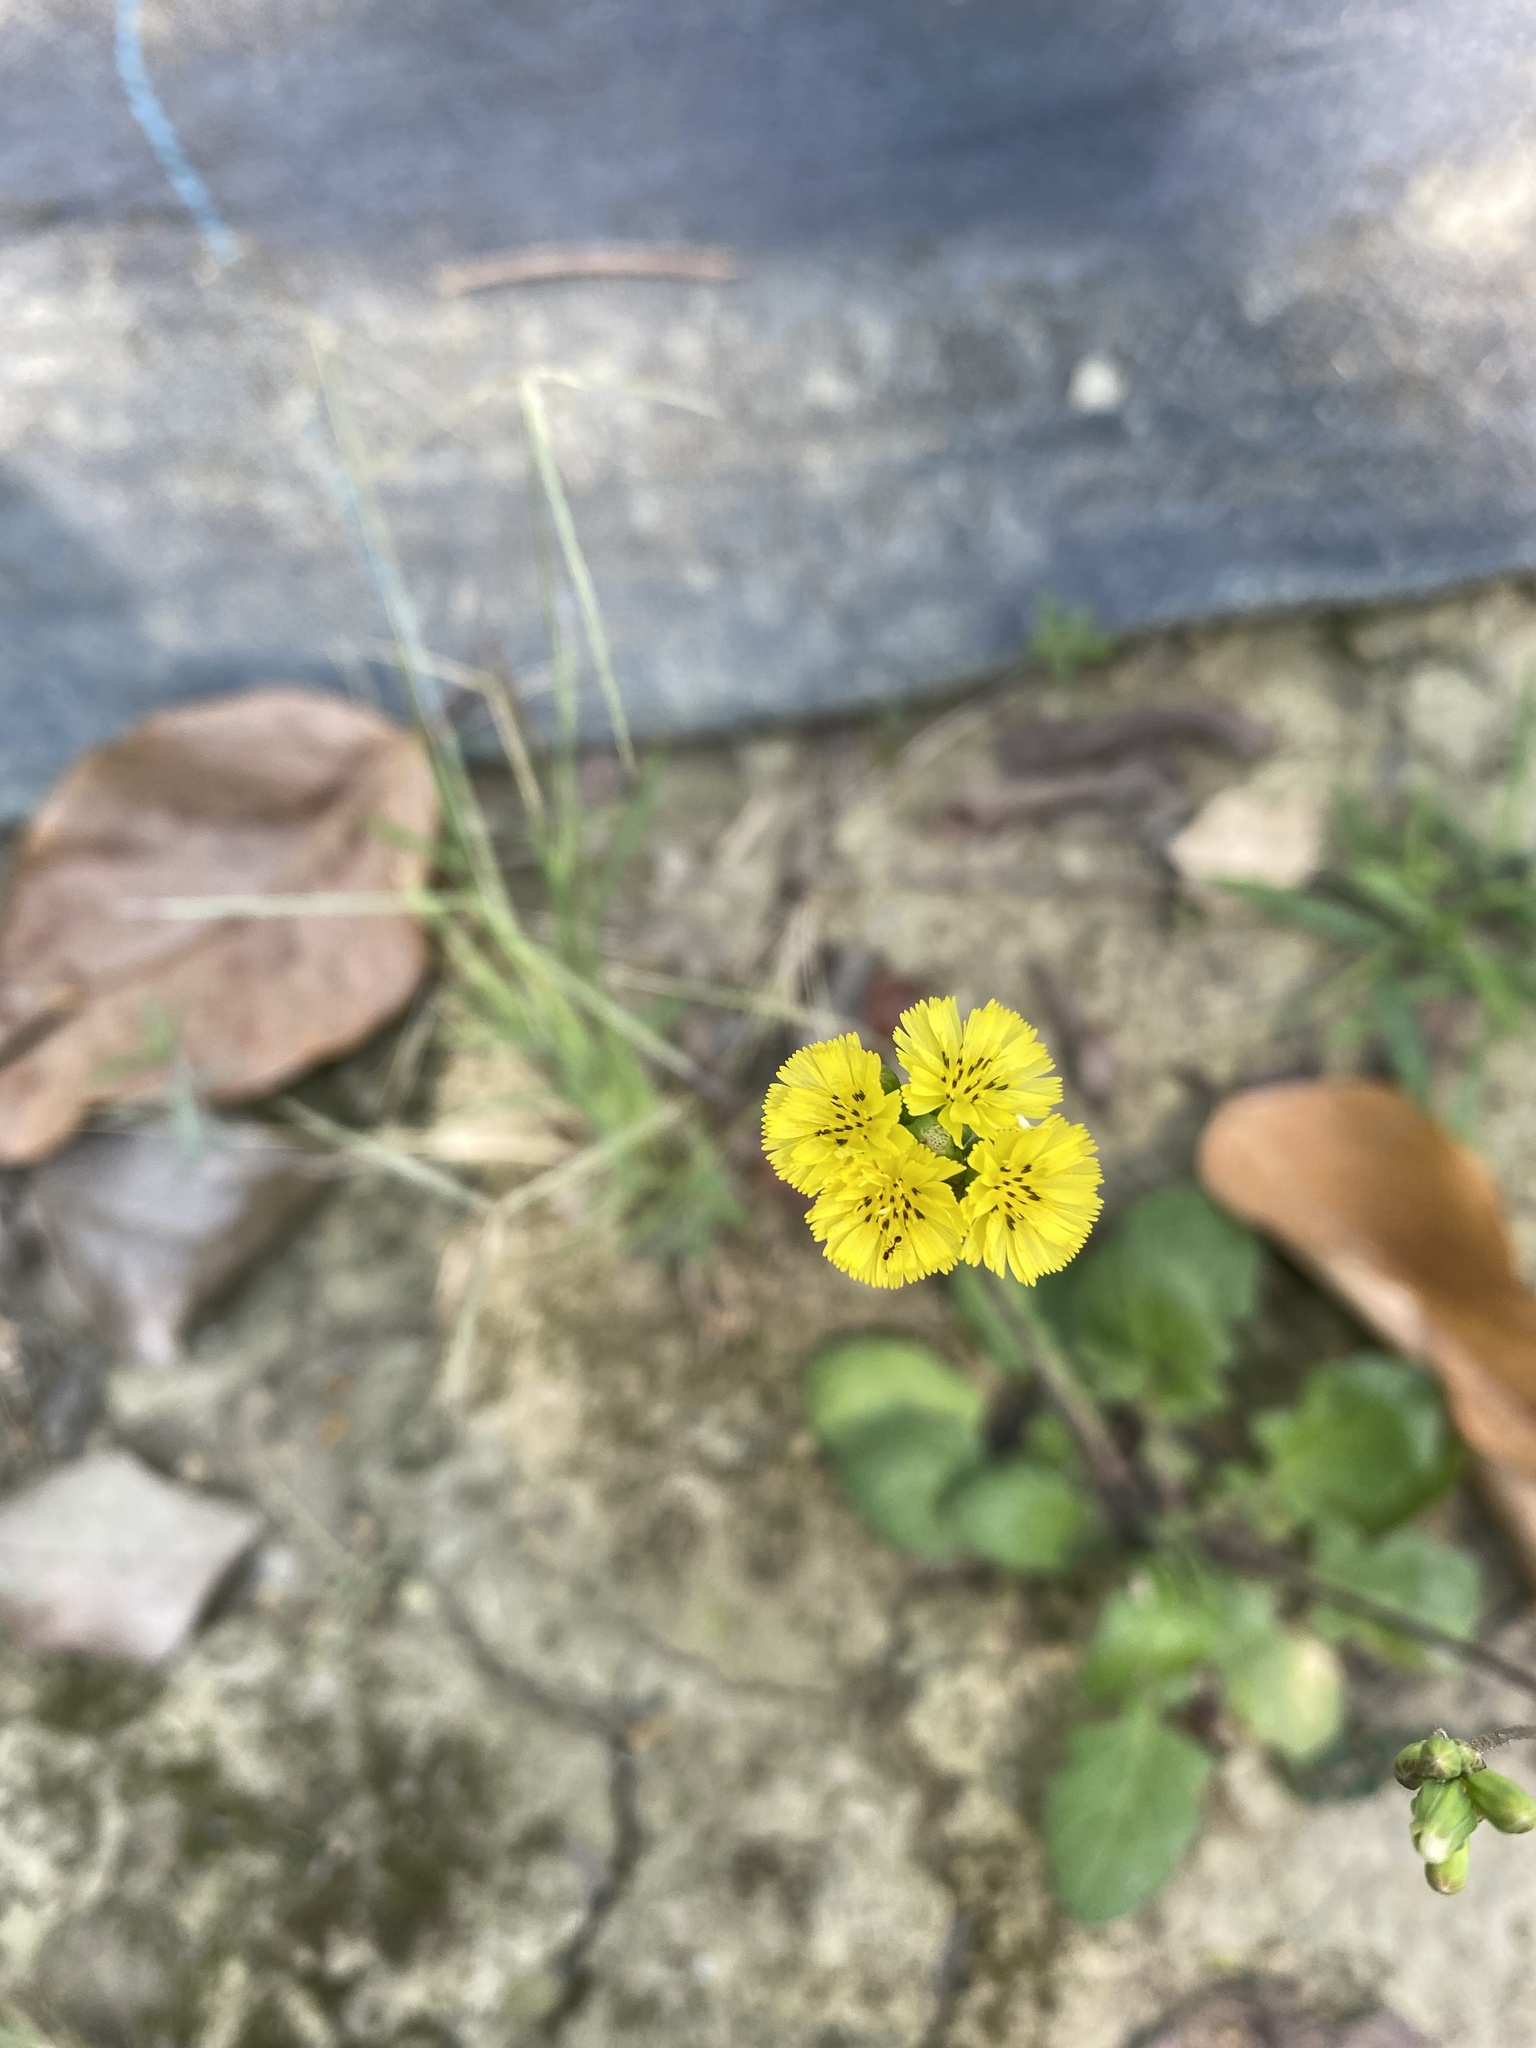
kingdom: Plantae
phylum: Tracheophyta
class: Magnoliopsida
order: Asterales
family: Asteraceae
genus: Youngia
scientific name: Youngia japonica
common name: Oriental false hawksbeard
